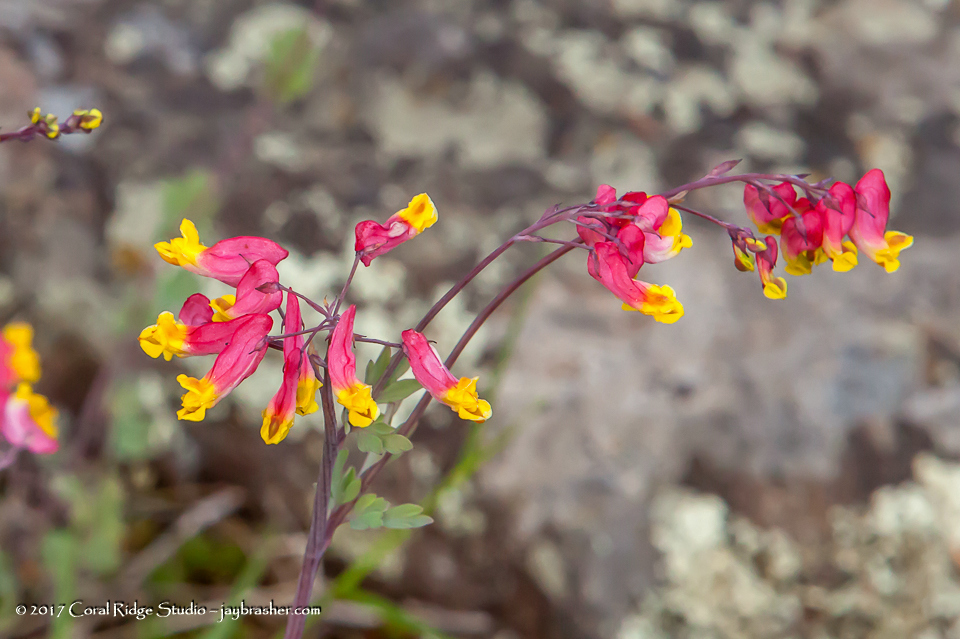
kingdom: Plantae
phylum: Tracheophyta
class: Magnoliopsida
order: Ranunculales
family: Papaveraceae
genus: Capnoides
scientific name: Capnoides sempervirens
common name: Rock harlequin
